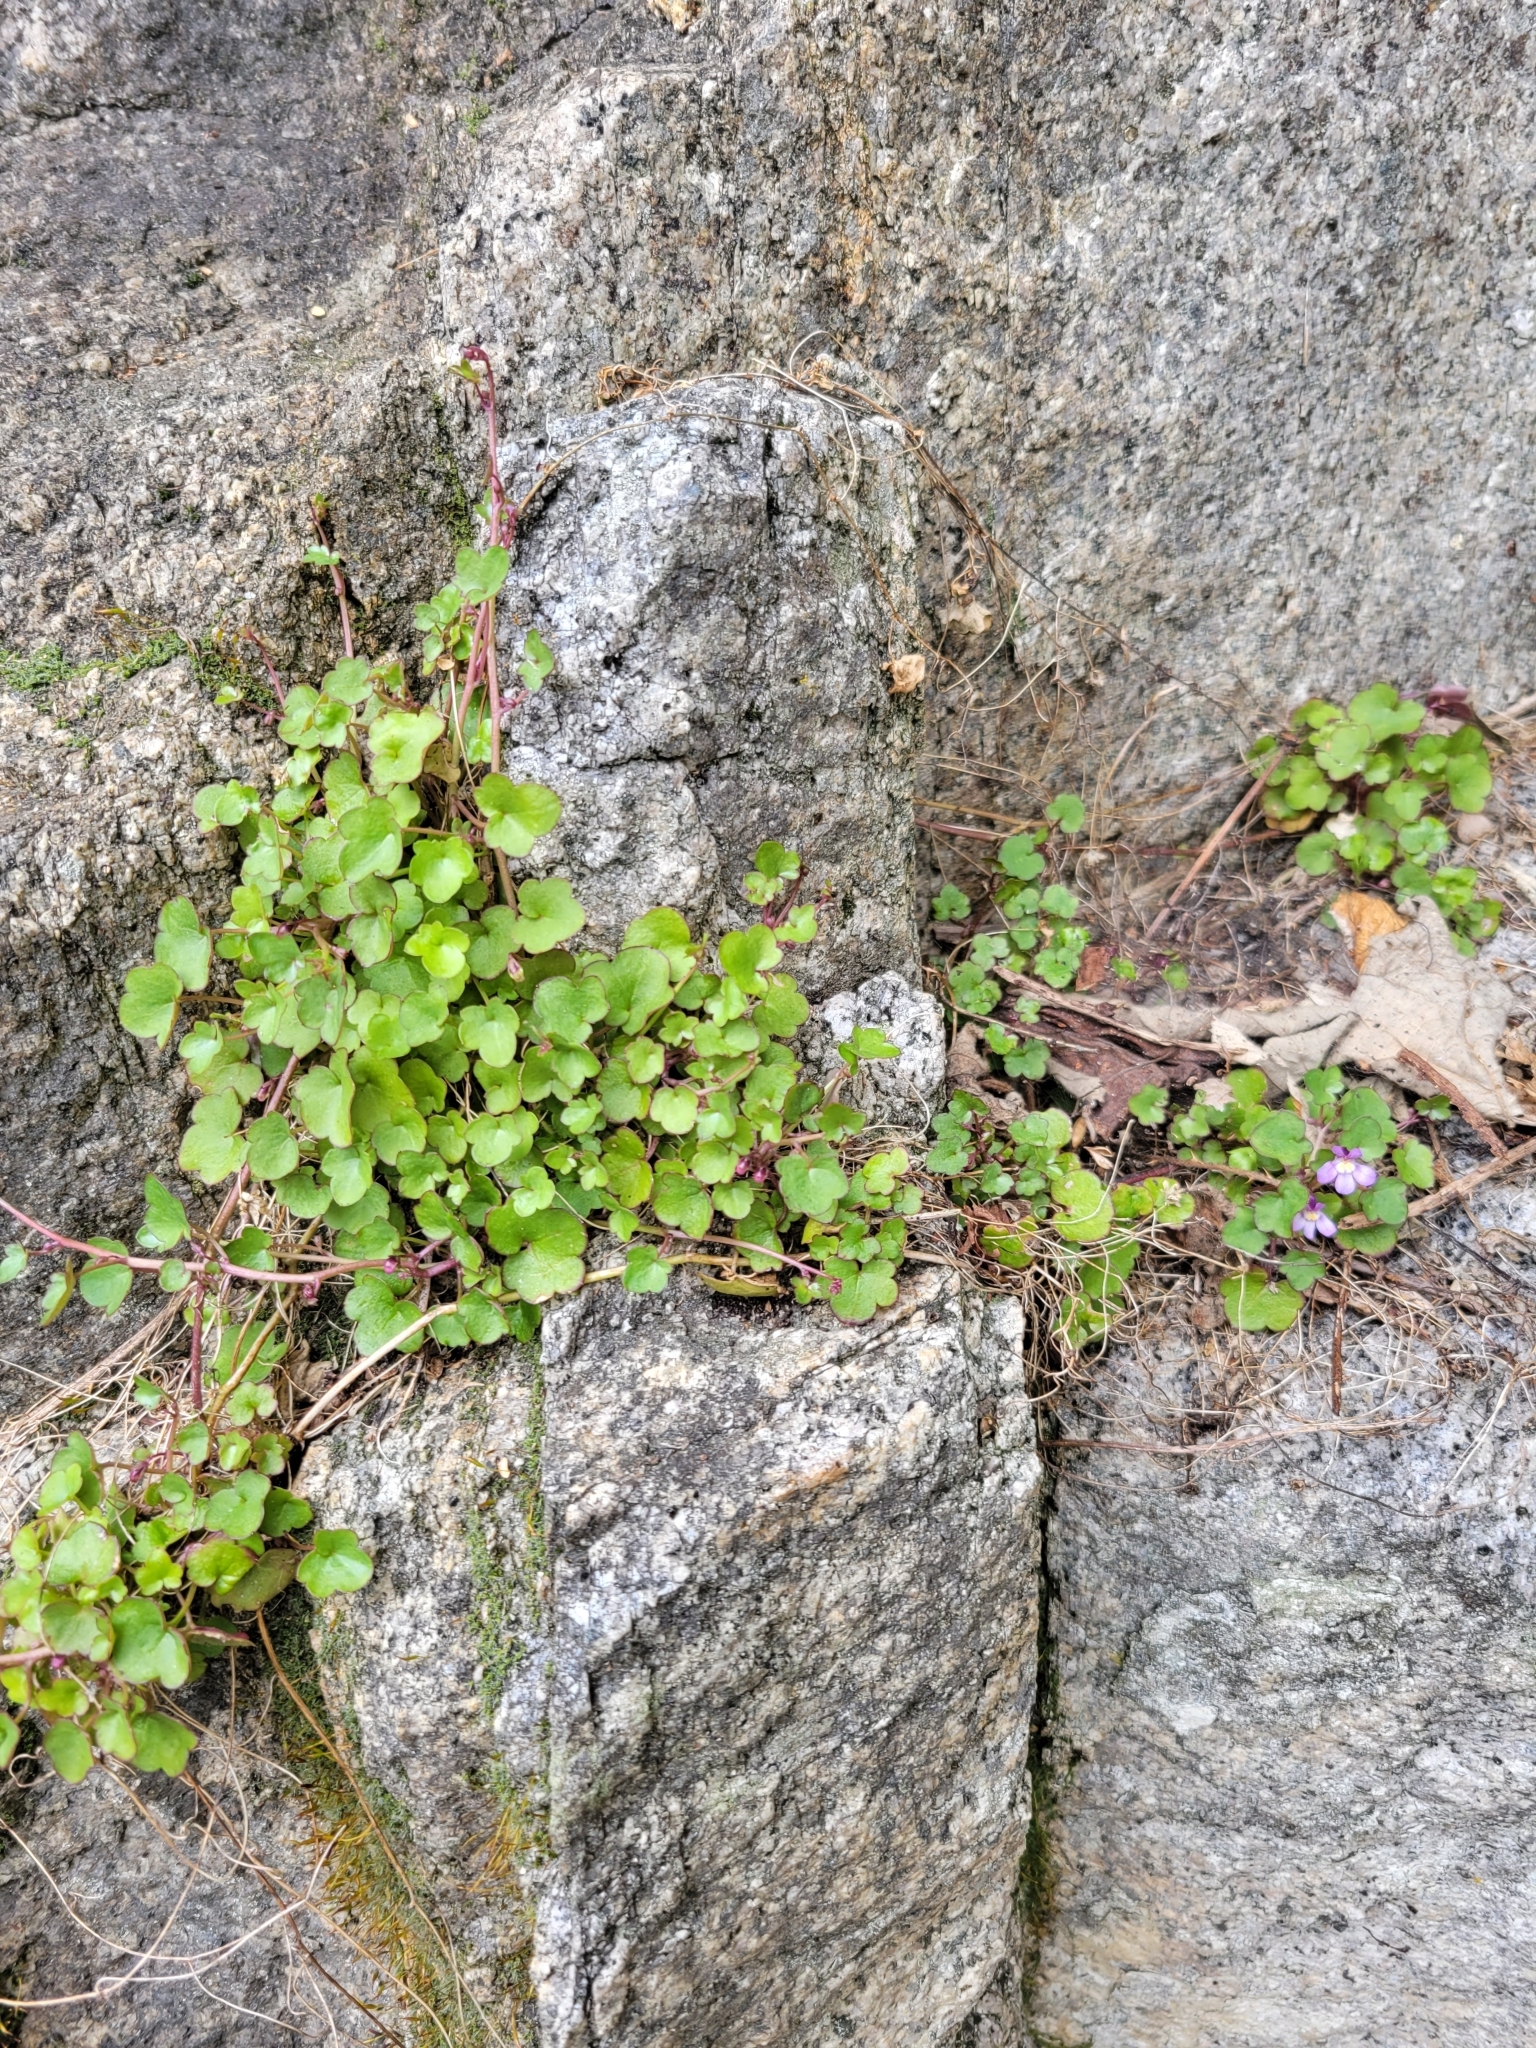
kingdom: Plantae
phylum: Tracheophyta
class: Magnoliopsida
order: Lamiales
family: Plantaginaceae
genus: Cymbalaria
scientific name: Cymbalaria muralis
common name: Ivy-leaved toadflax
